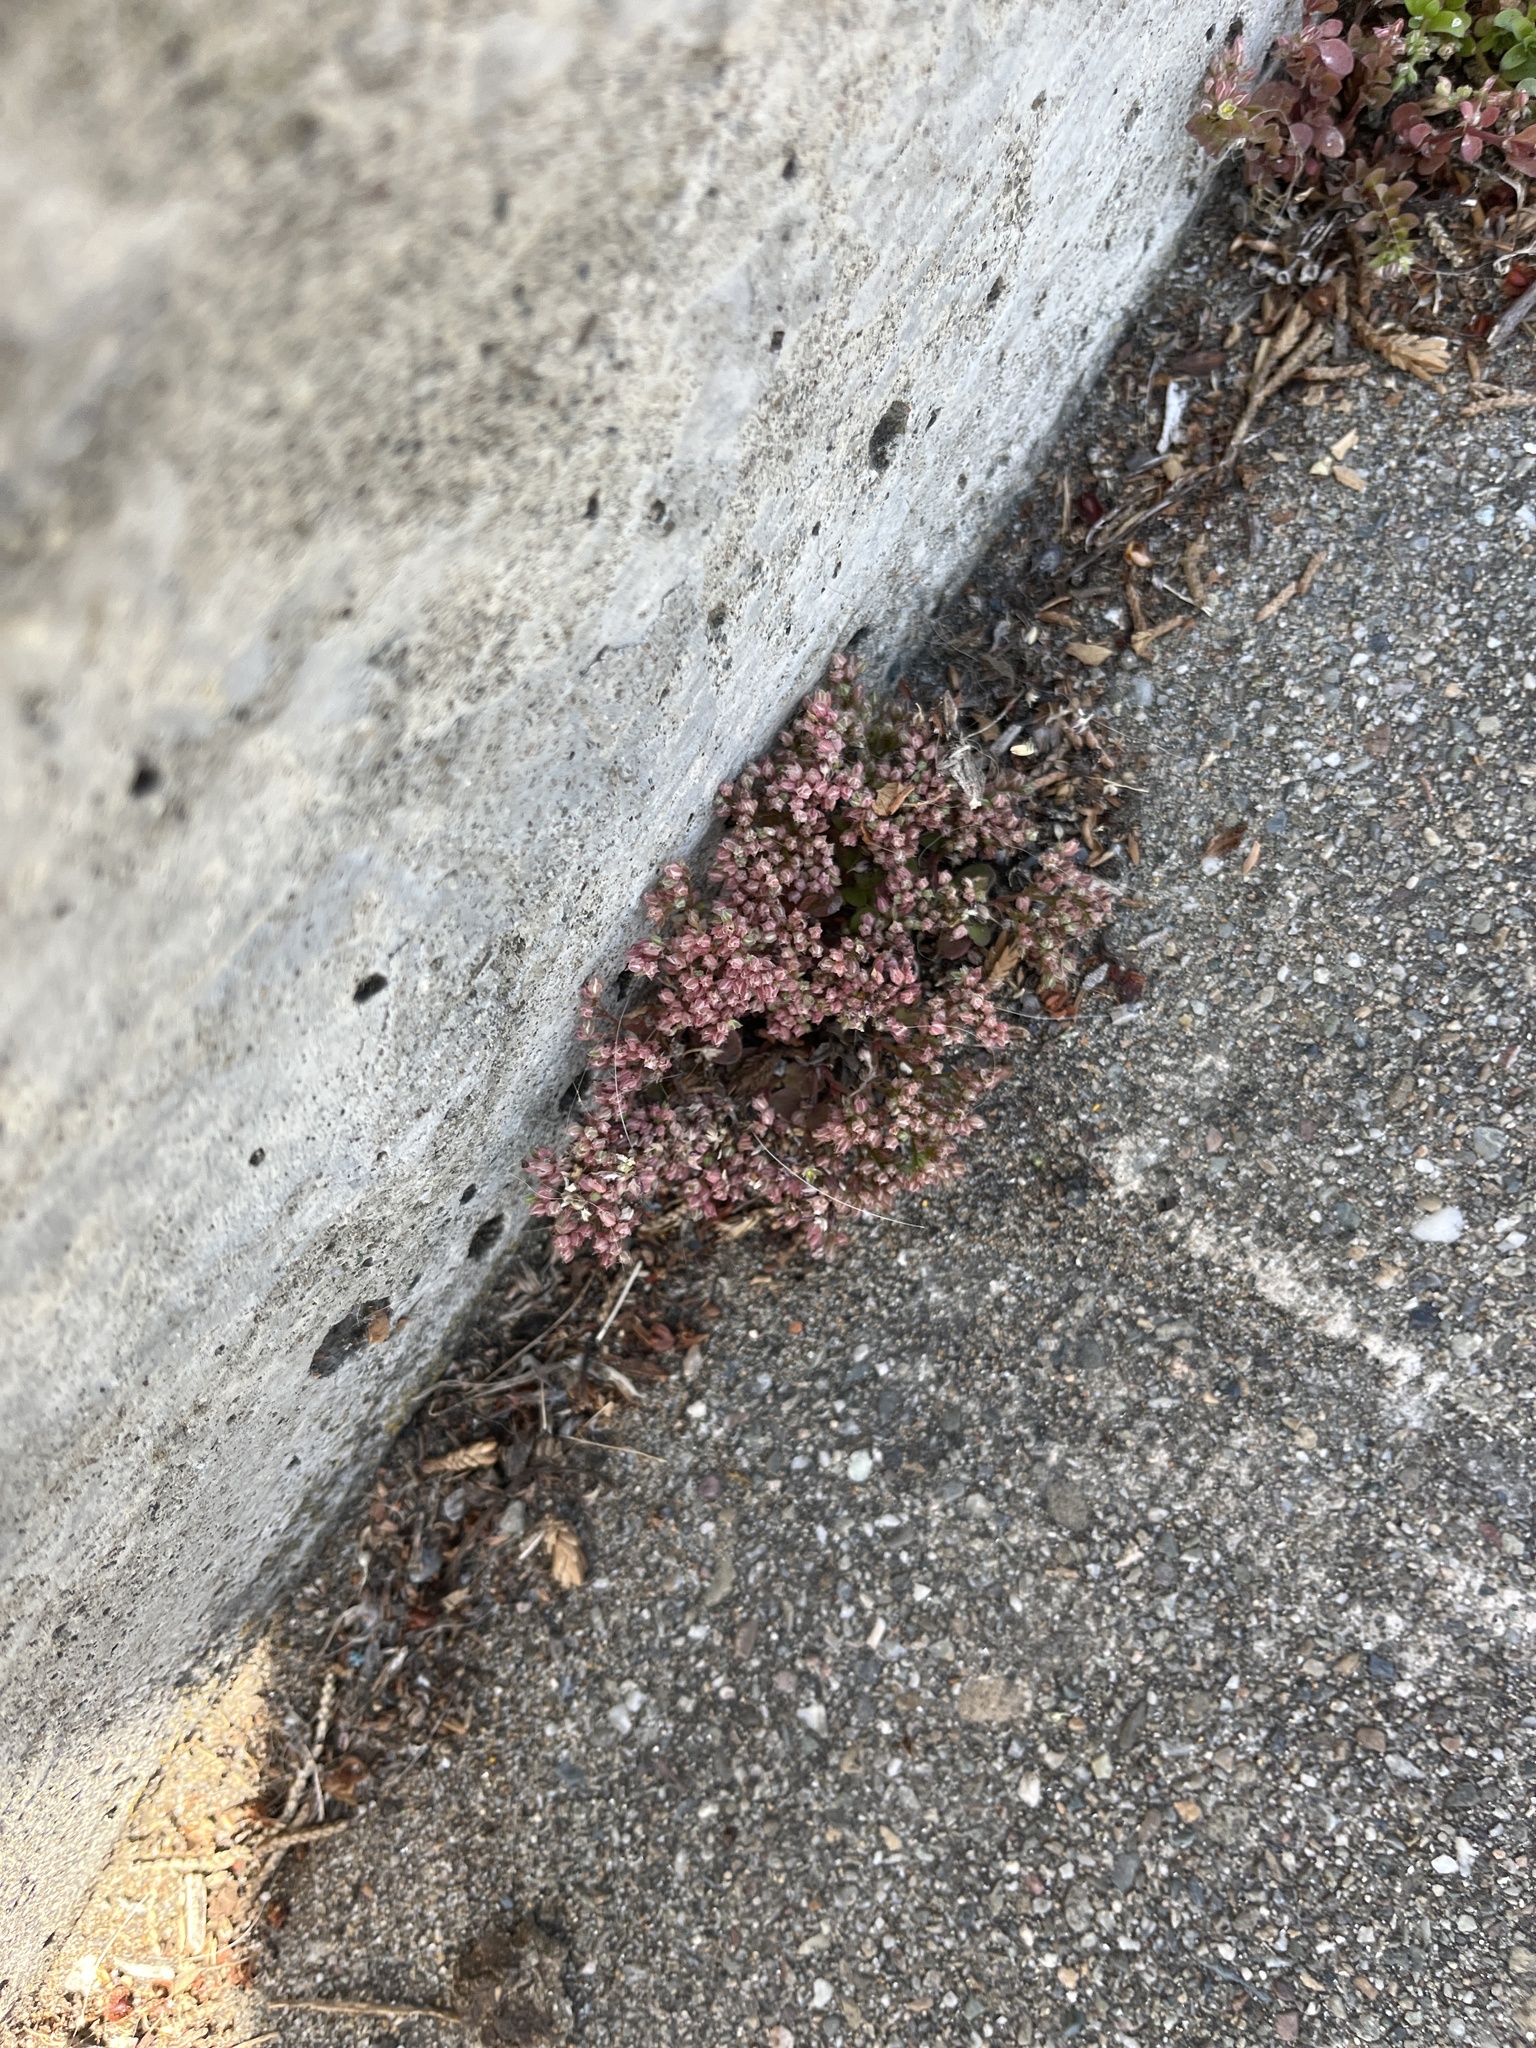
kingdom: Plantae
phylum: Tracheophyta
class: Magnoliopsida
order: Caryophyllales
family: Caryophyllaceae
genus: Polycarpon
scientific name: Polycarpon tetraphyllum
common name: Four-leaved all-seed
